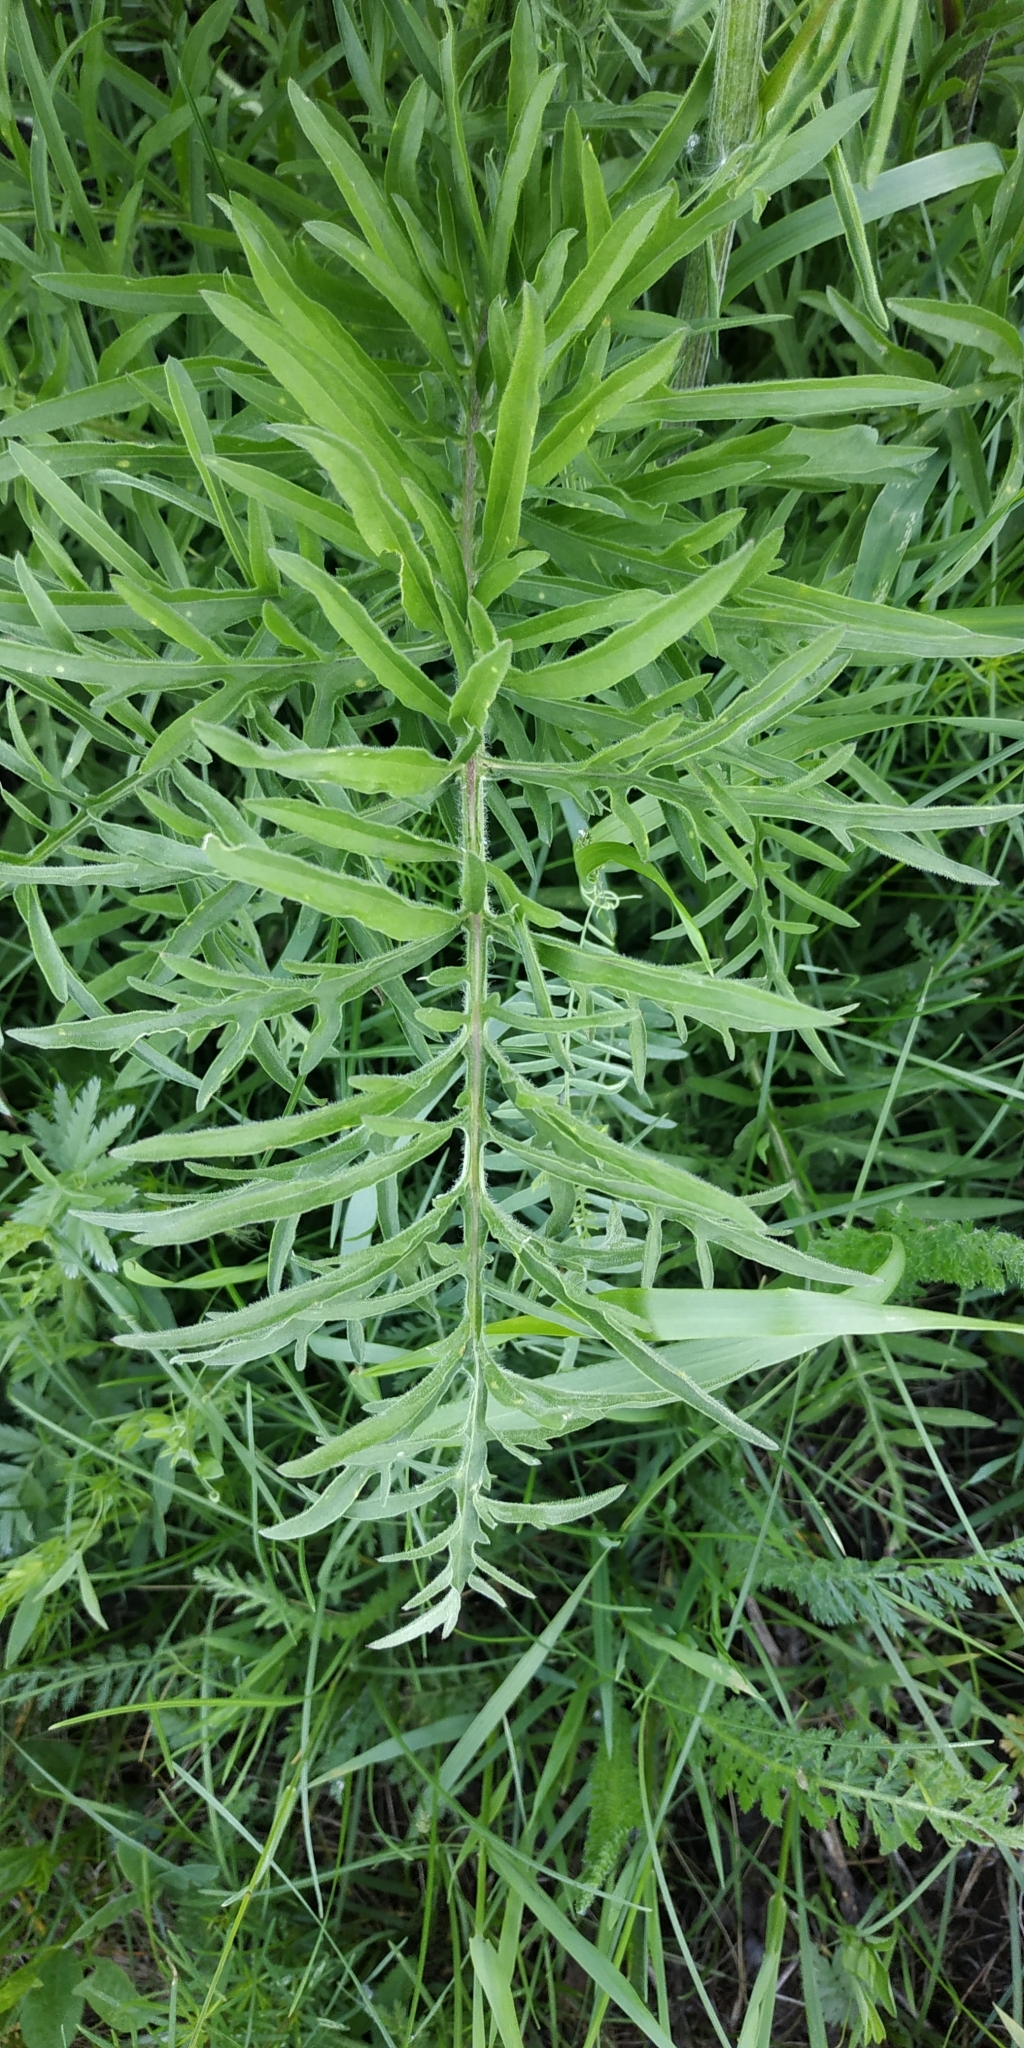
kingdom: Plantae
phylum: Tracheophyta
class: Magnoliopsida
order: Asterales
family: Asteraceae
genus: Centaurea
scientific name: Centaurea scabiosa
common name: Greater knapweed
